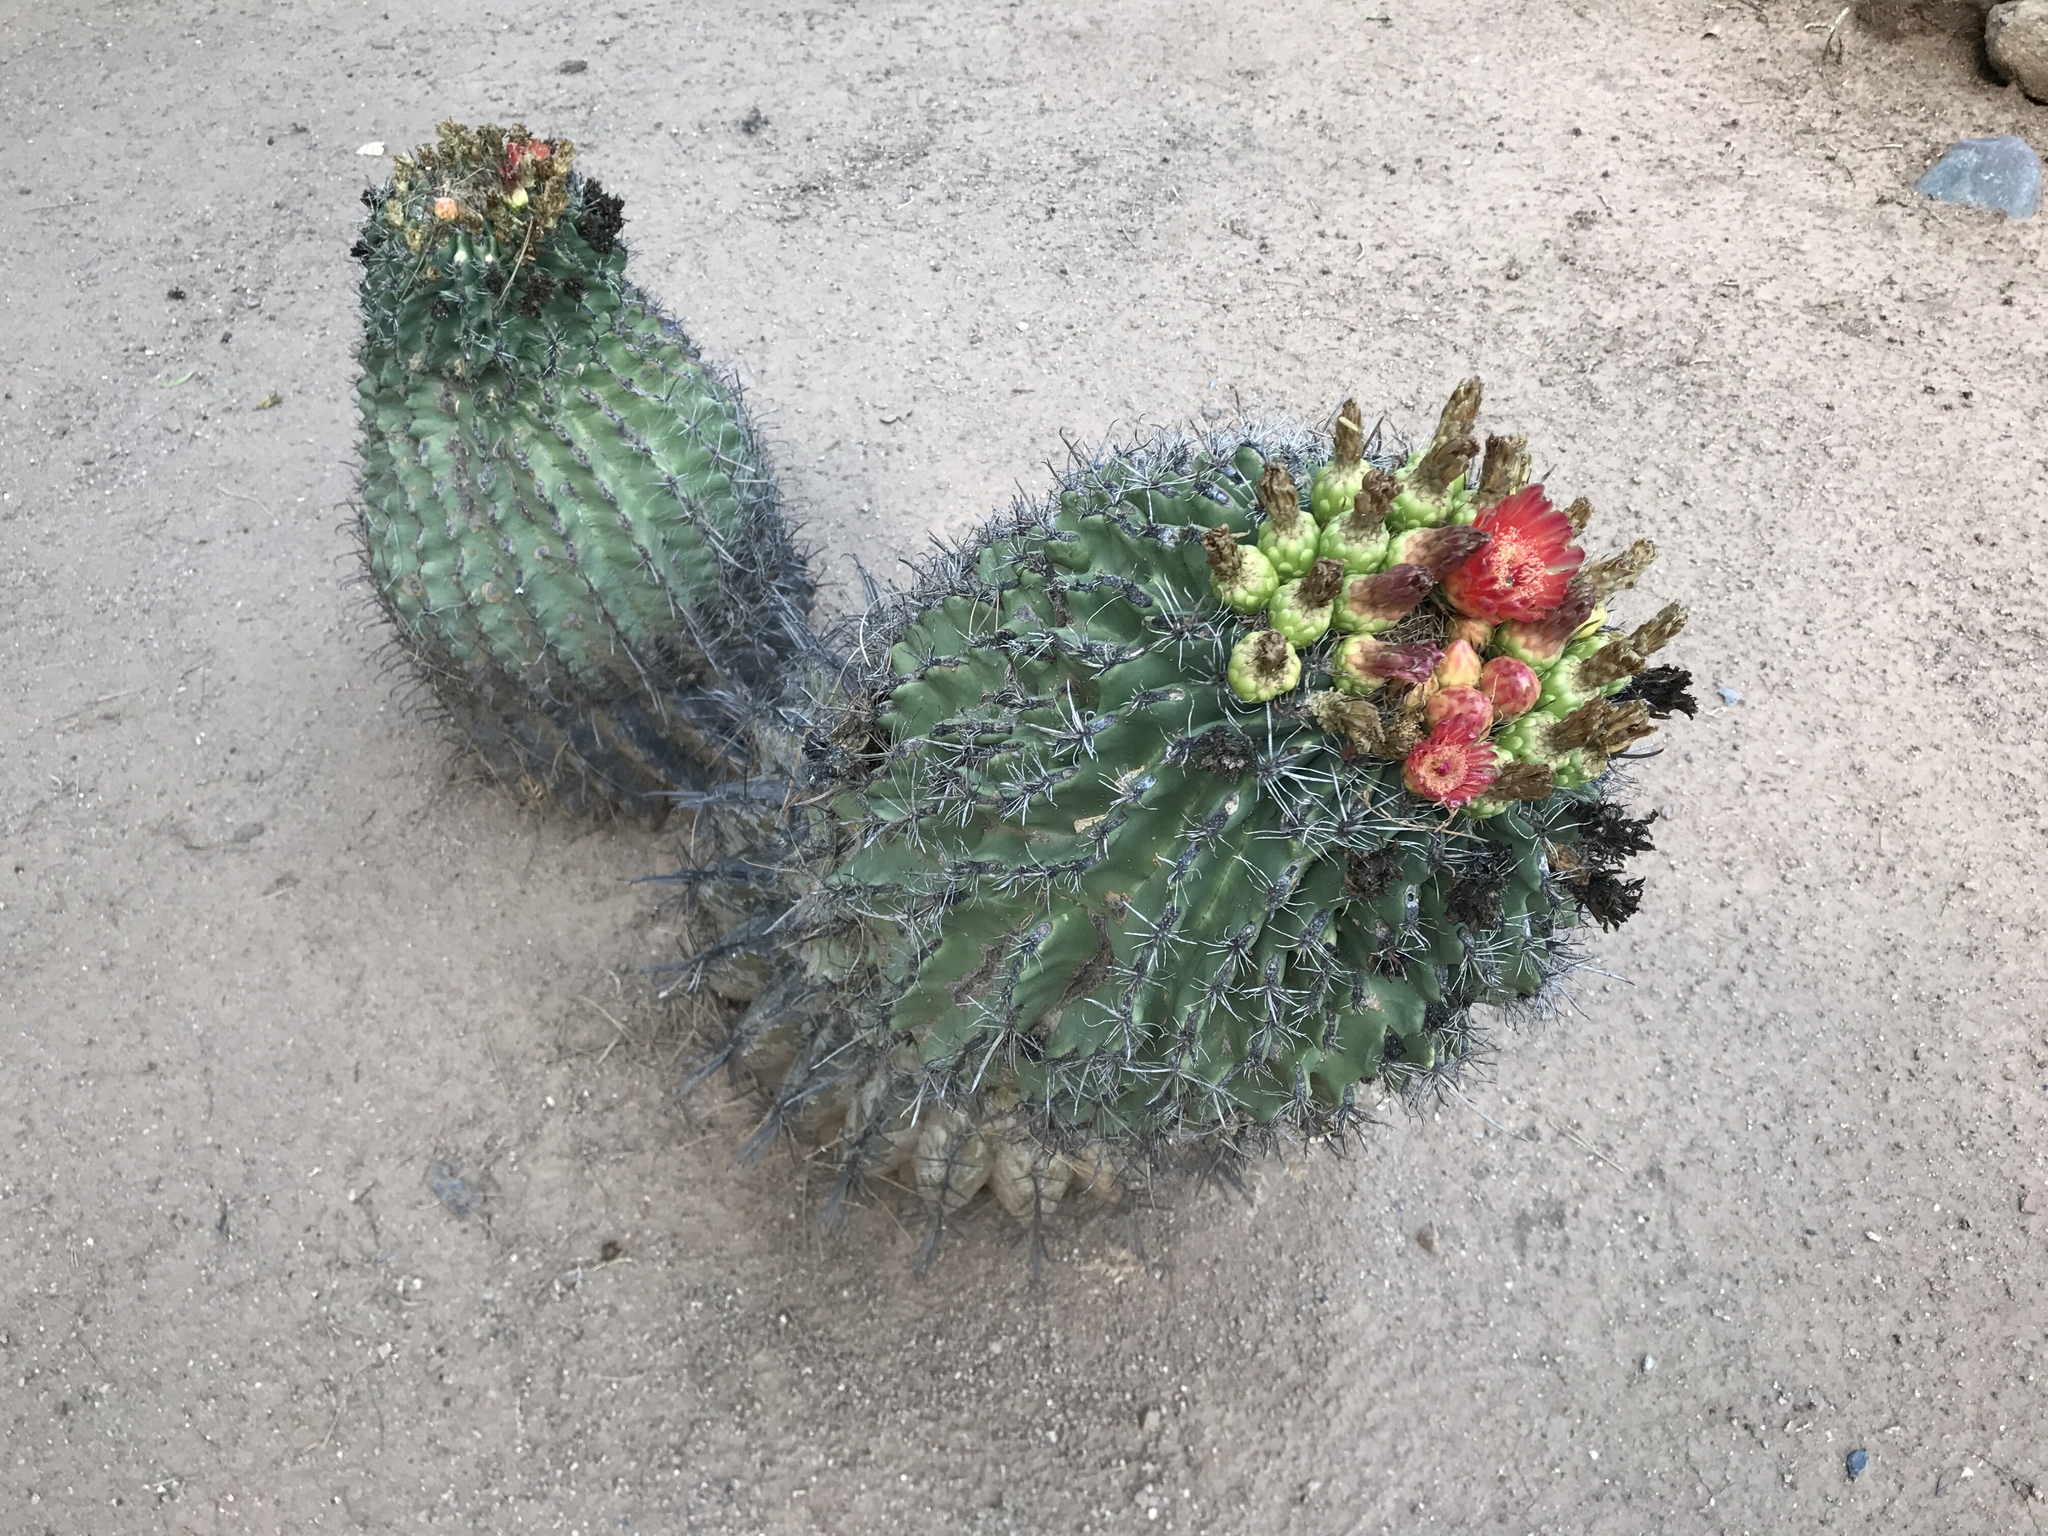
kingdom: Plantae
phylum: Tracheophyta
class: Magnoliopsida
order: Caryophyllales
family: Cactaceae
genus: Ferocactus
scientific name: Ferocactus wislizeni
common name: Candy barrel cactus
